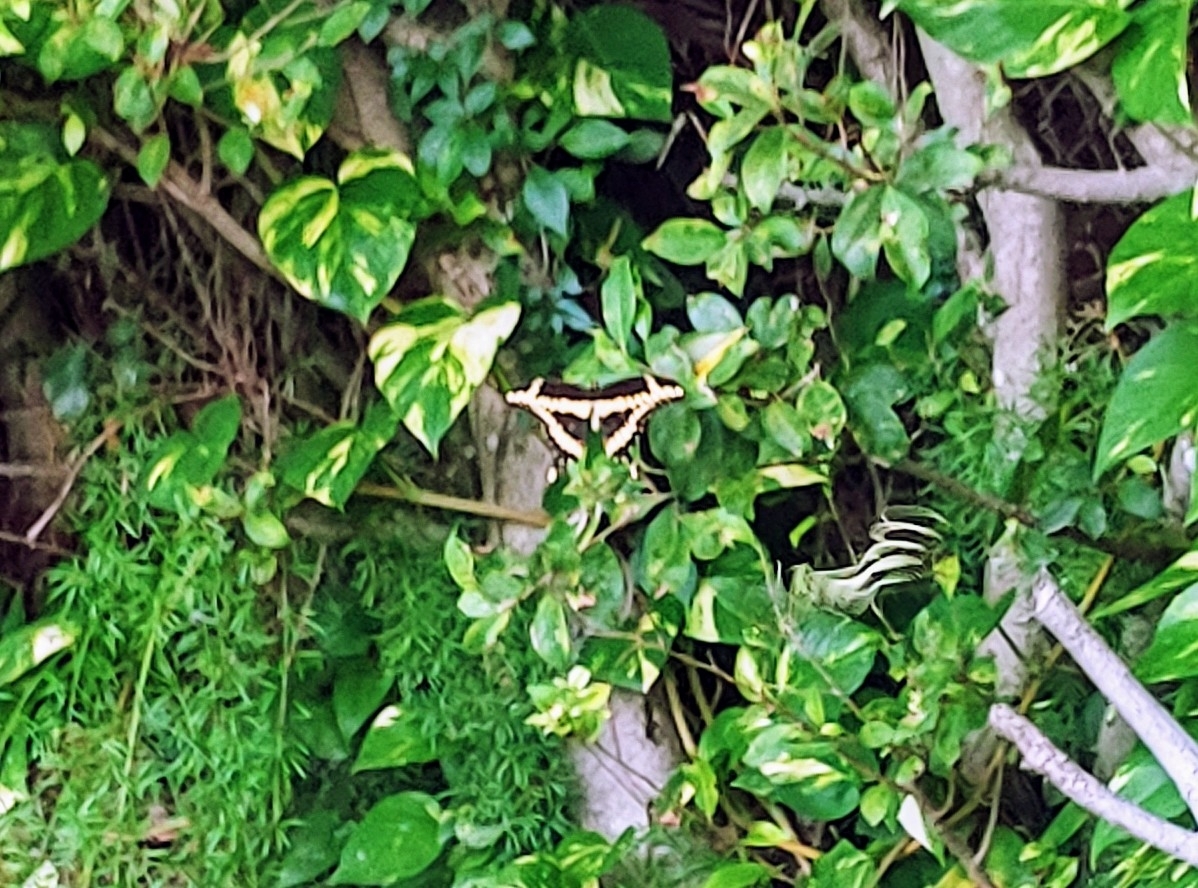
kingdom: Animalia
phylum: Arthropoda
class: Insecta
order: Lepidoptera
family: Papilionidae
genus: Papilio
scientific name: Papilio cresphontes
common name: Giant swallowtail
